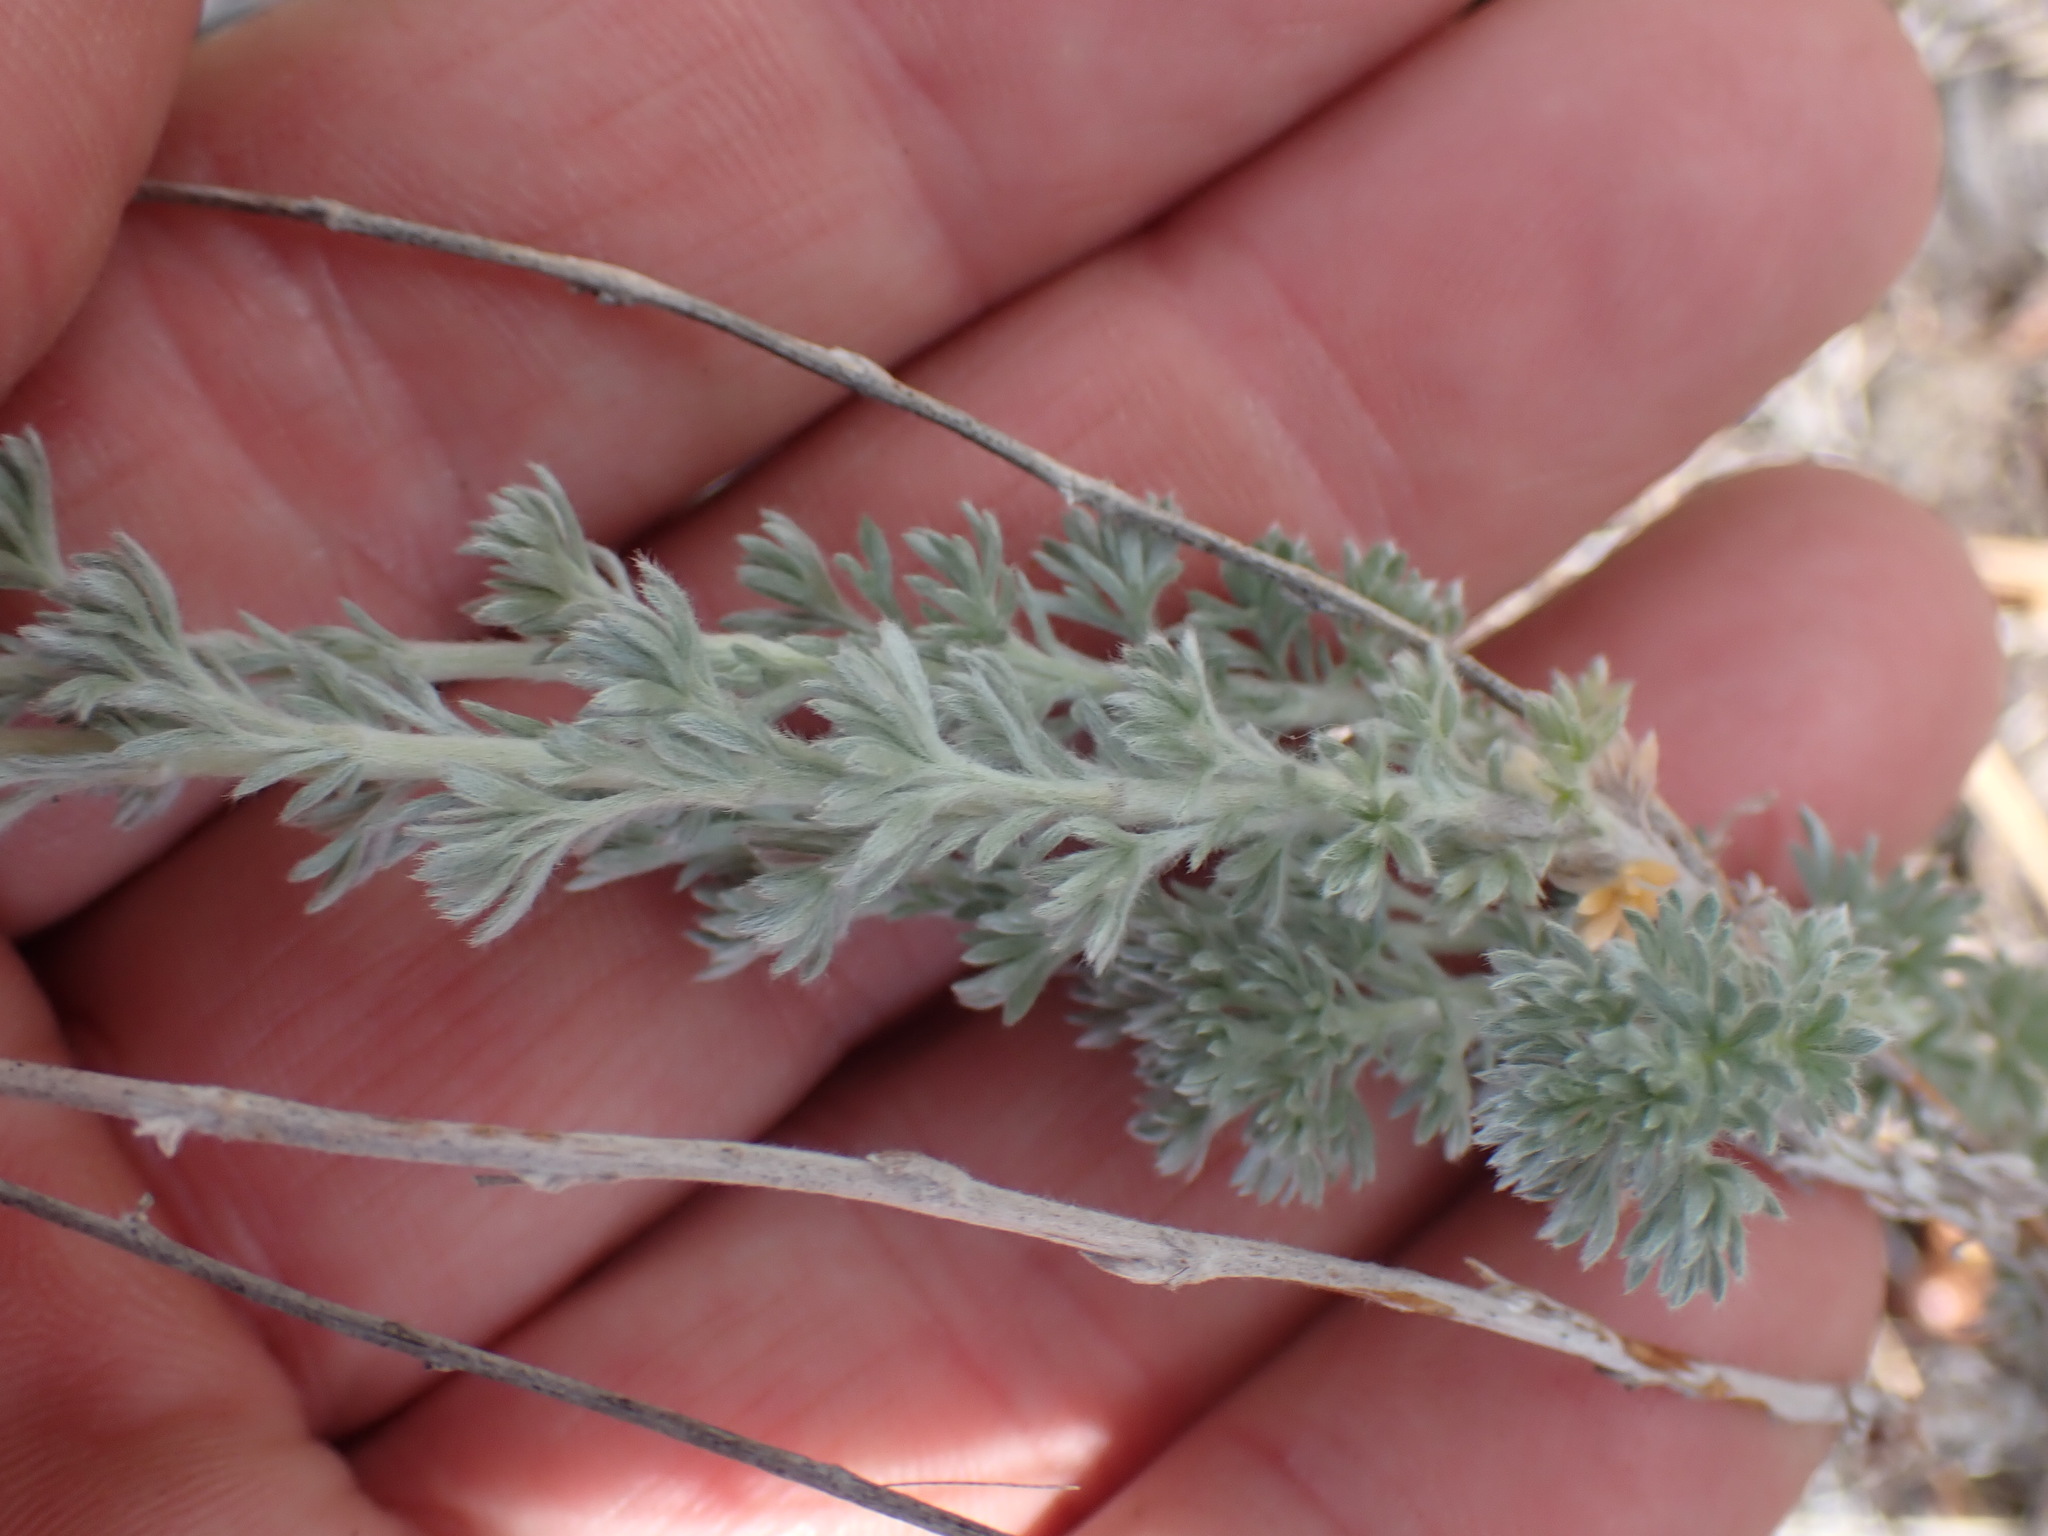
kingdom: Plantae
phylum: Tracheophyta
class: Magnoliopsida
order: Asterales
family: Asteraceae
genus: Artemisia
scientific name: Artemisia frigida
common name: Prairie sagewort
